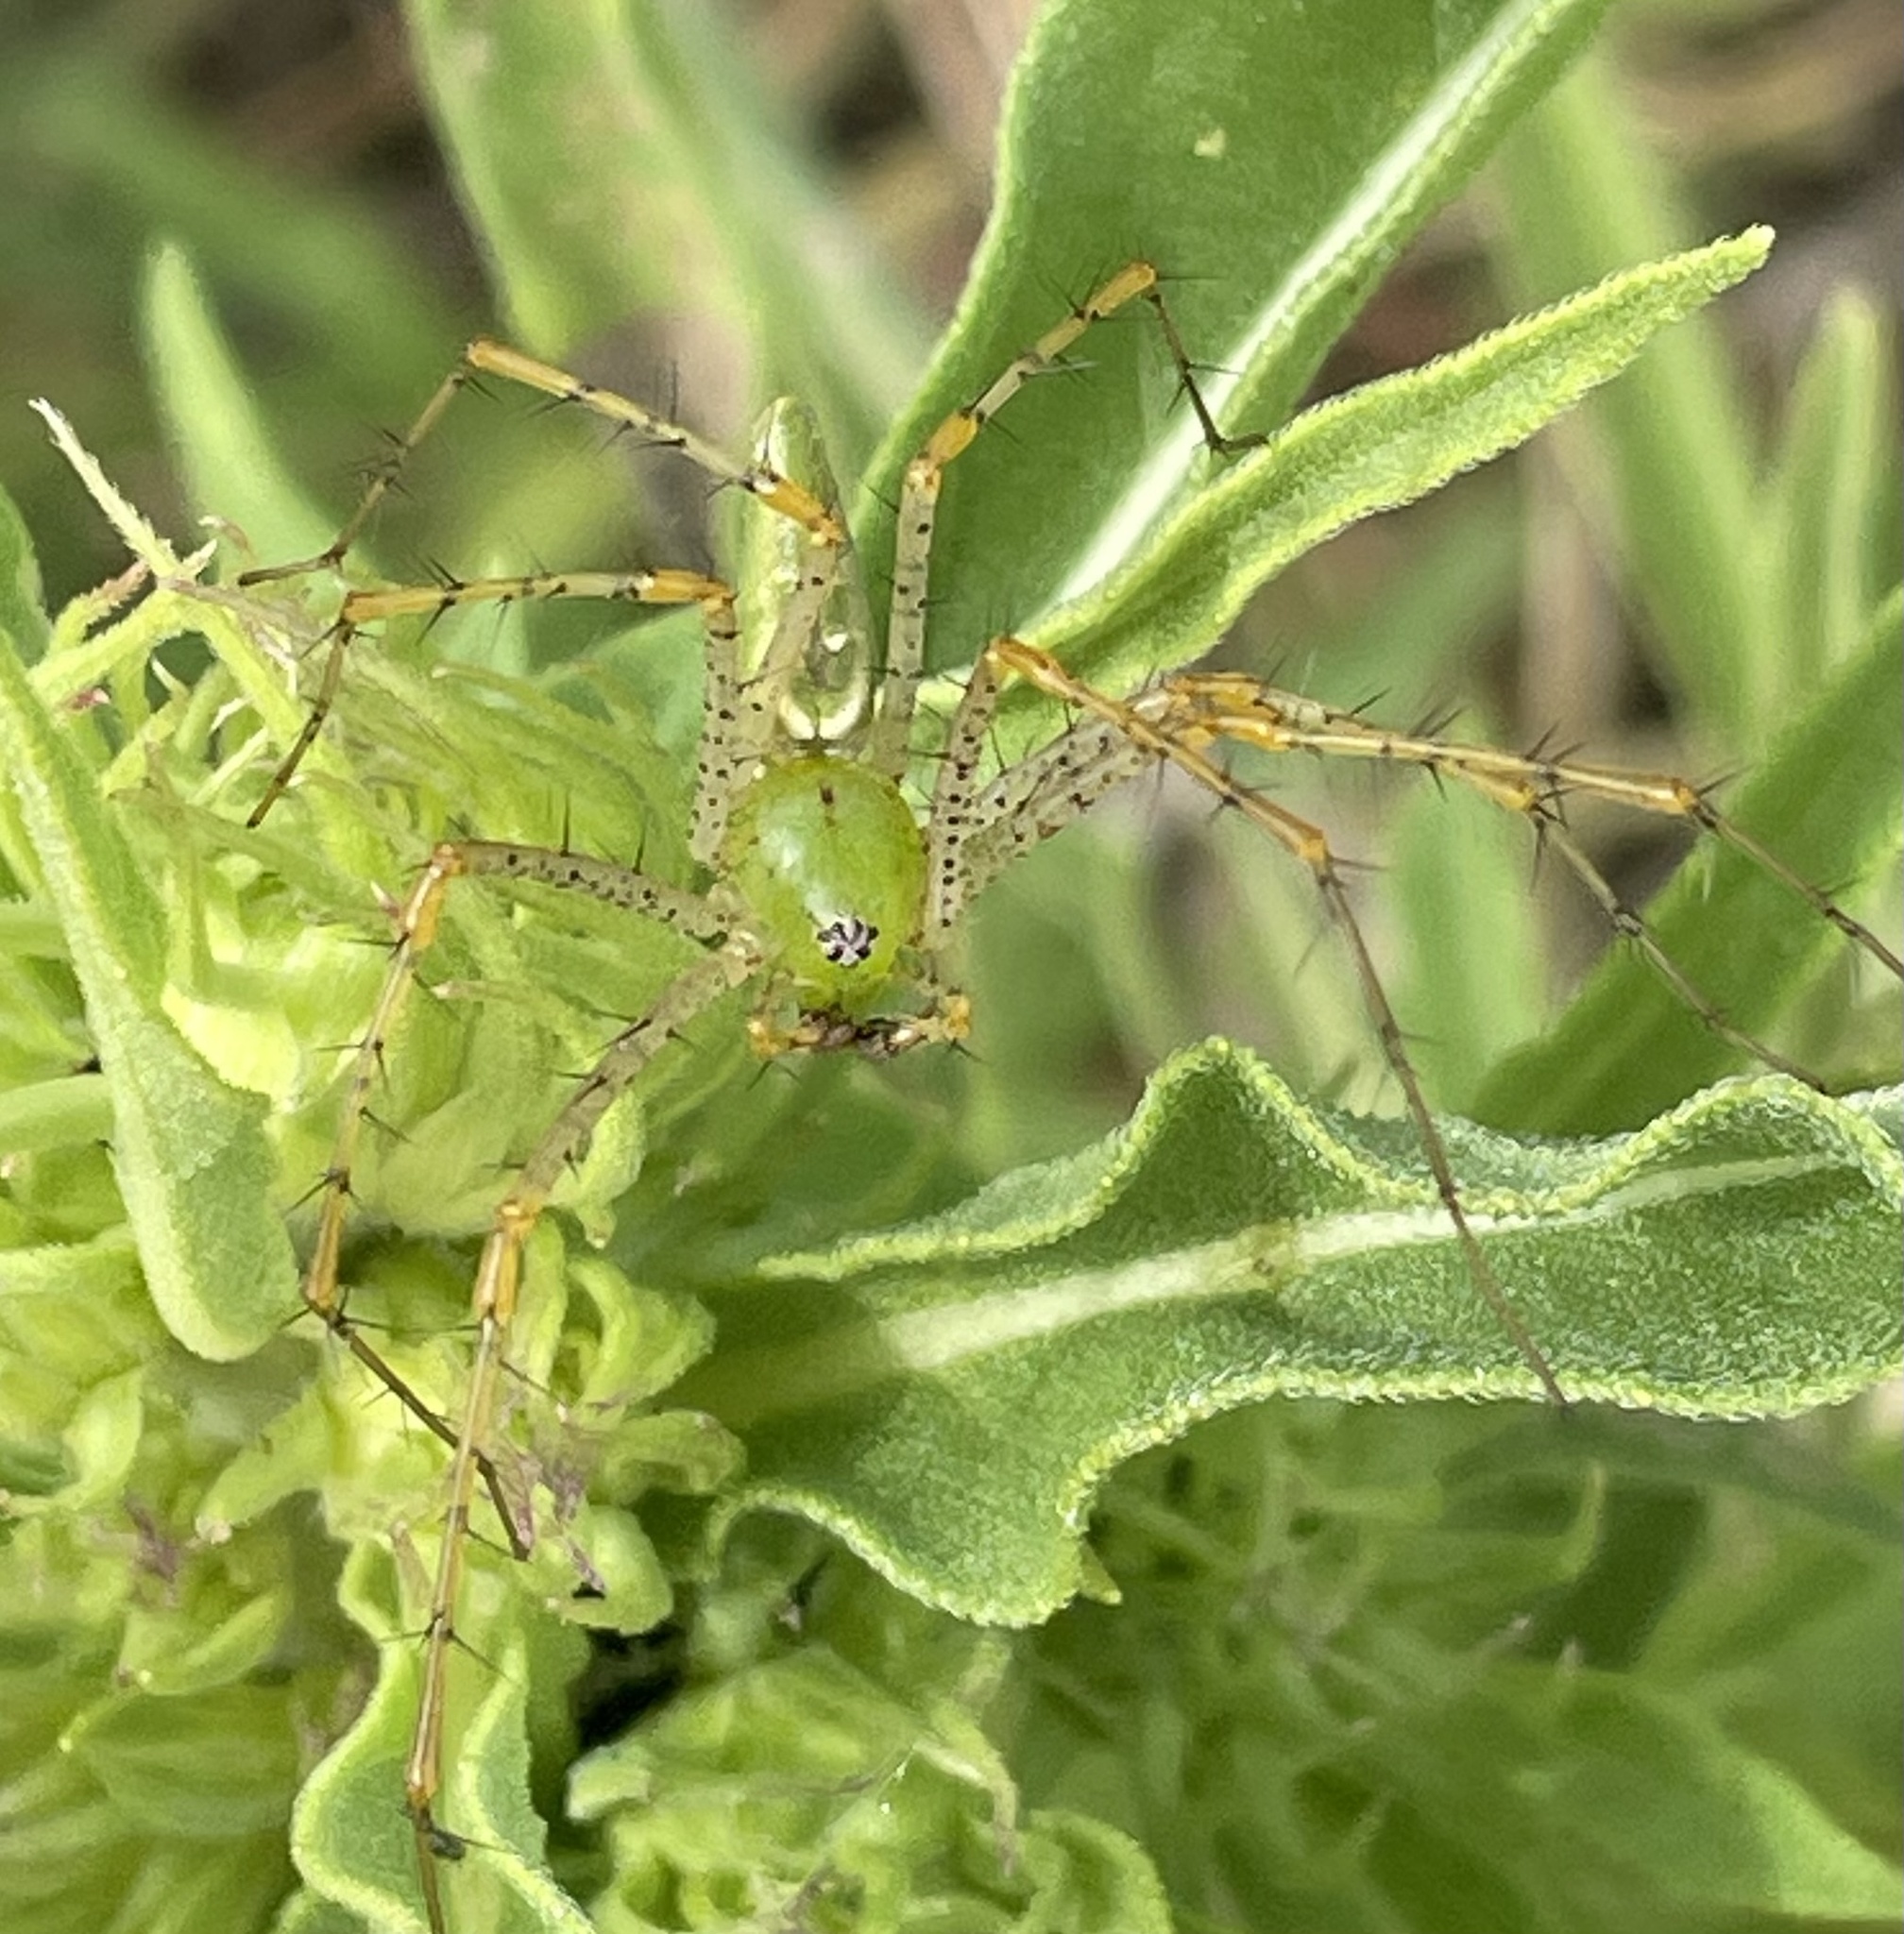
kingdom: Animalia
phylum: Arthropoda
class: Arachnida
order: Araneae
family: Oxyopidae
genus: Peucetia
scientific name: Peucetia viridans
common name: Lynx spiders
